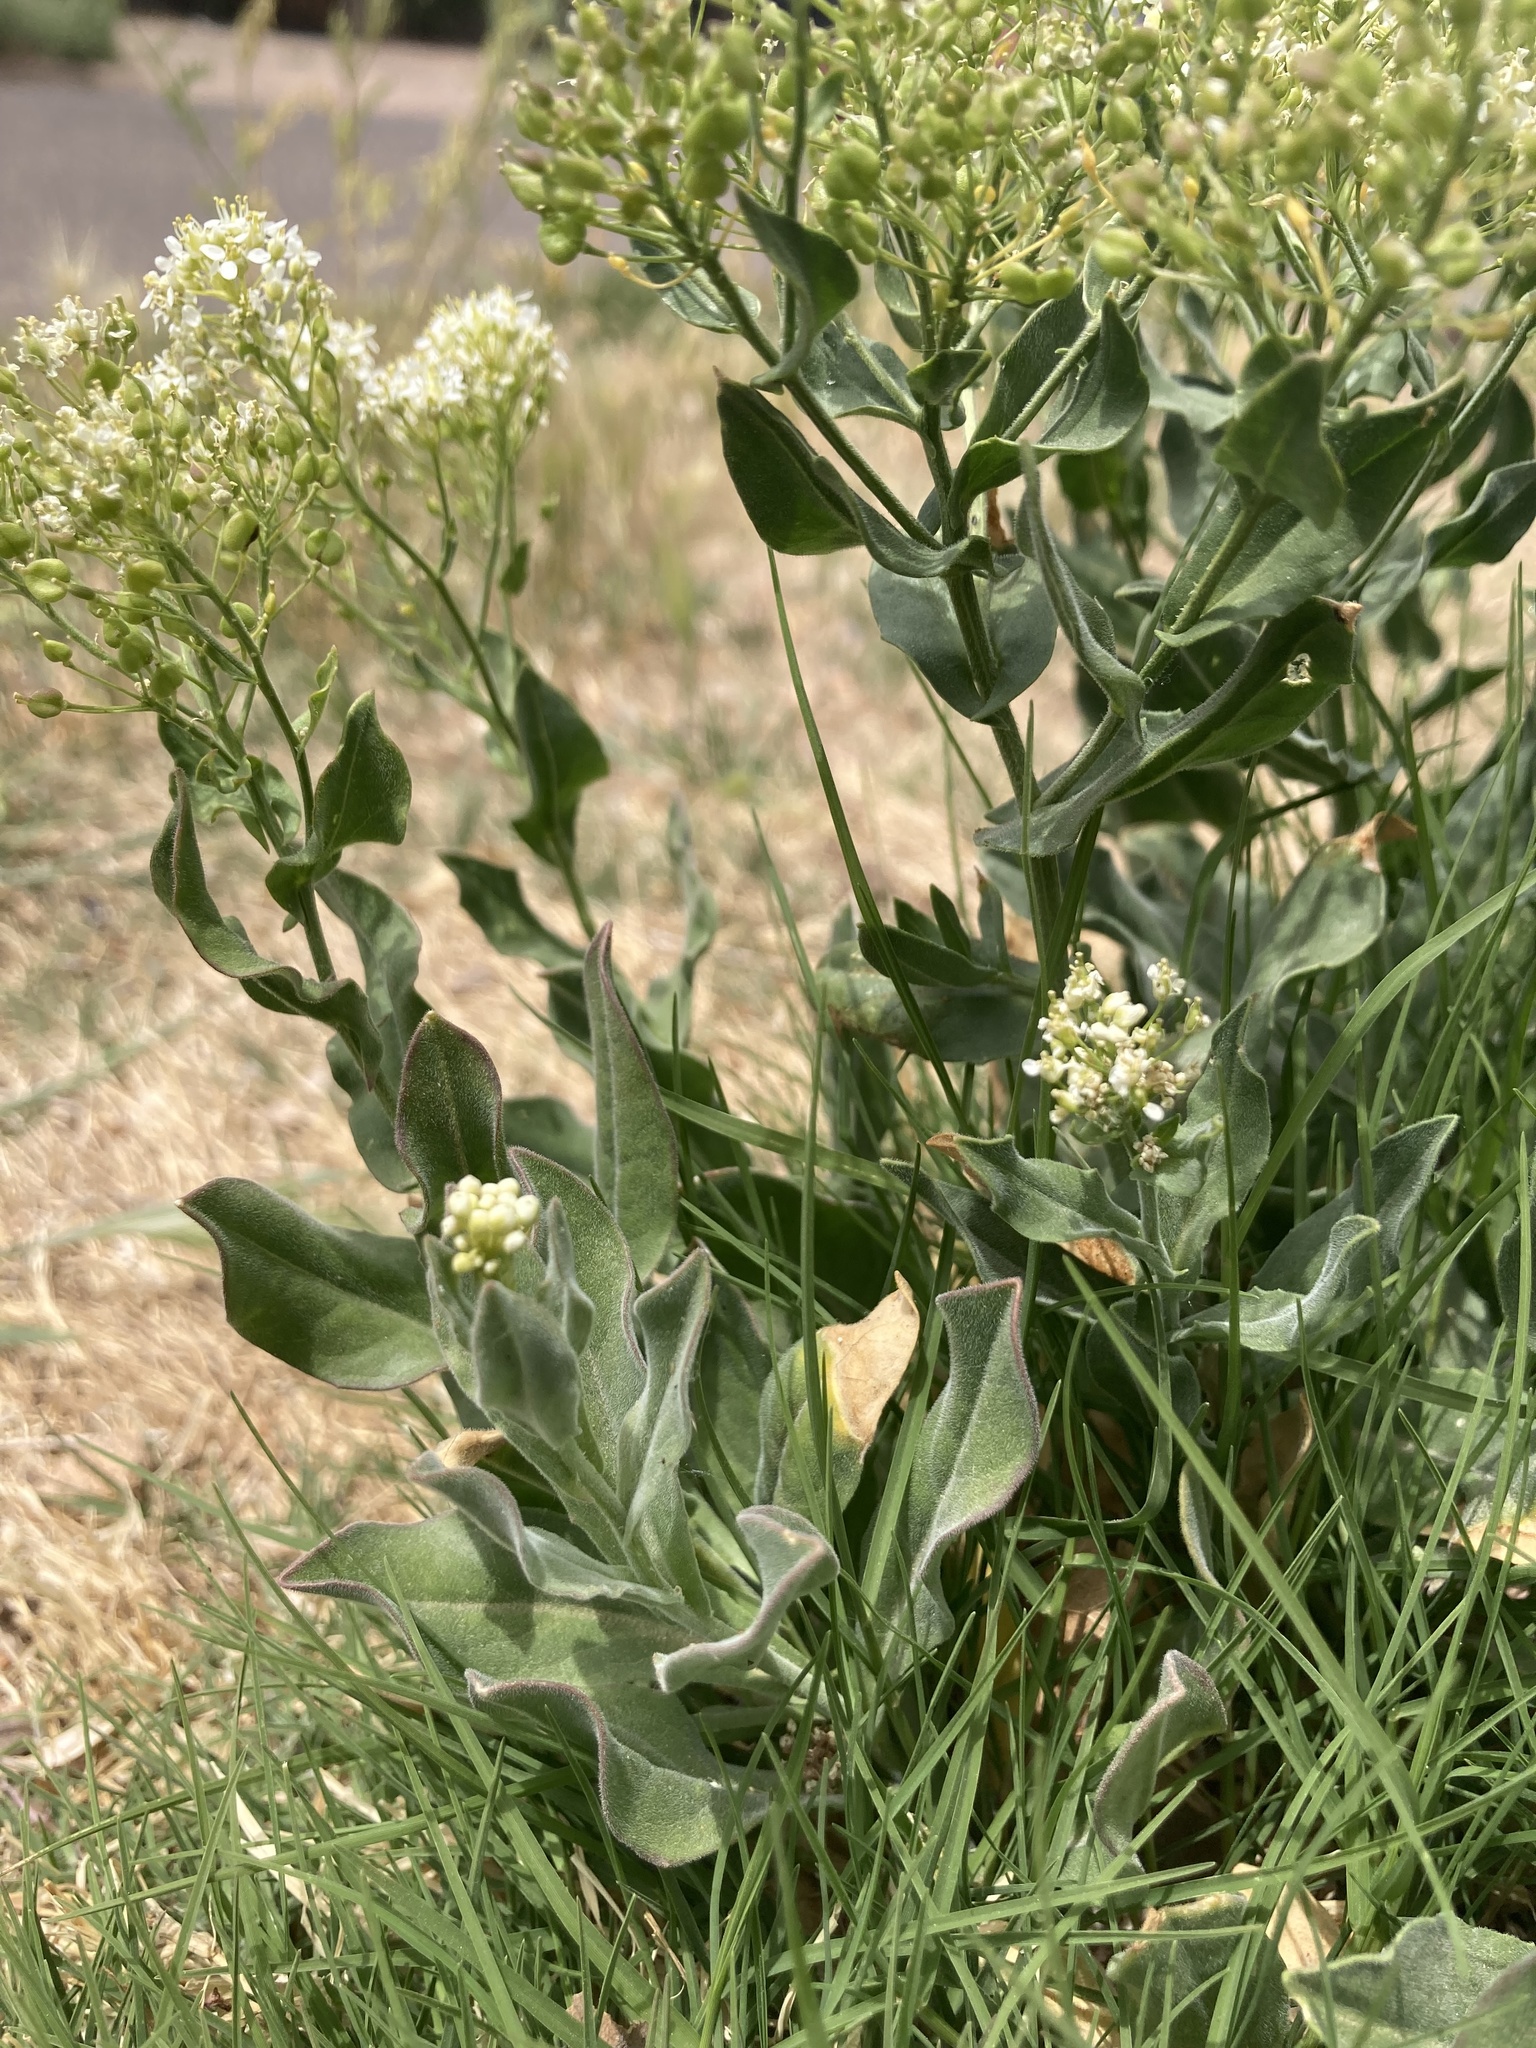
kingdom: Plantae
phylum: Tracheophyta
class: Magnoliopsida
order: Brassicales
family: Brassicaceae
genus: Lepidium
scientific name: Lepidium draba
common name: Hoary cress
